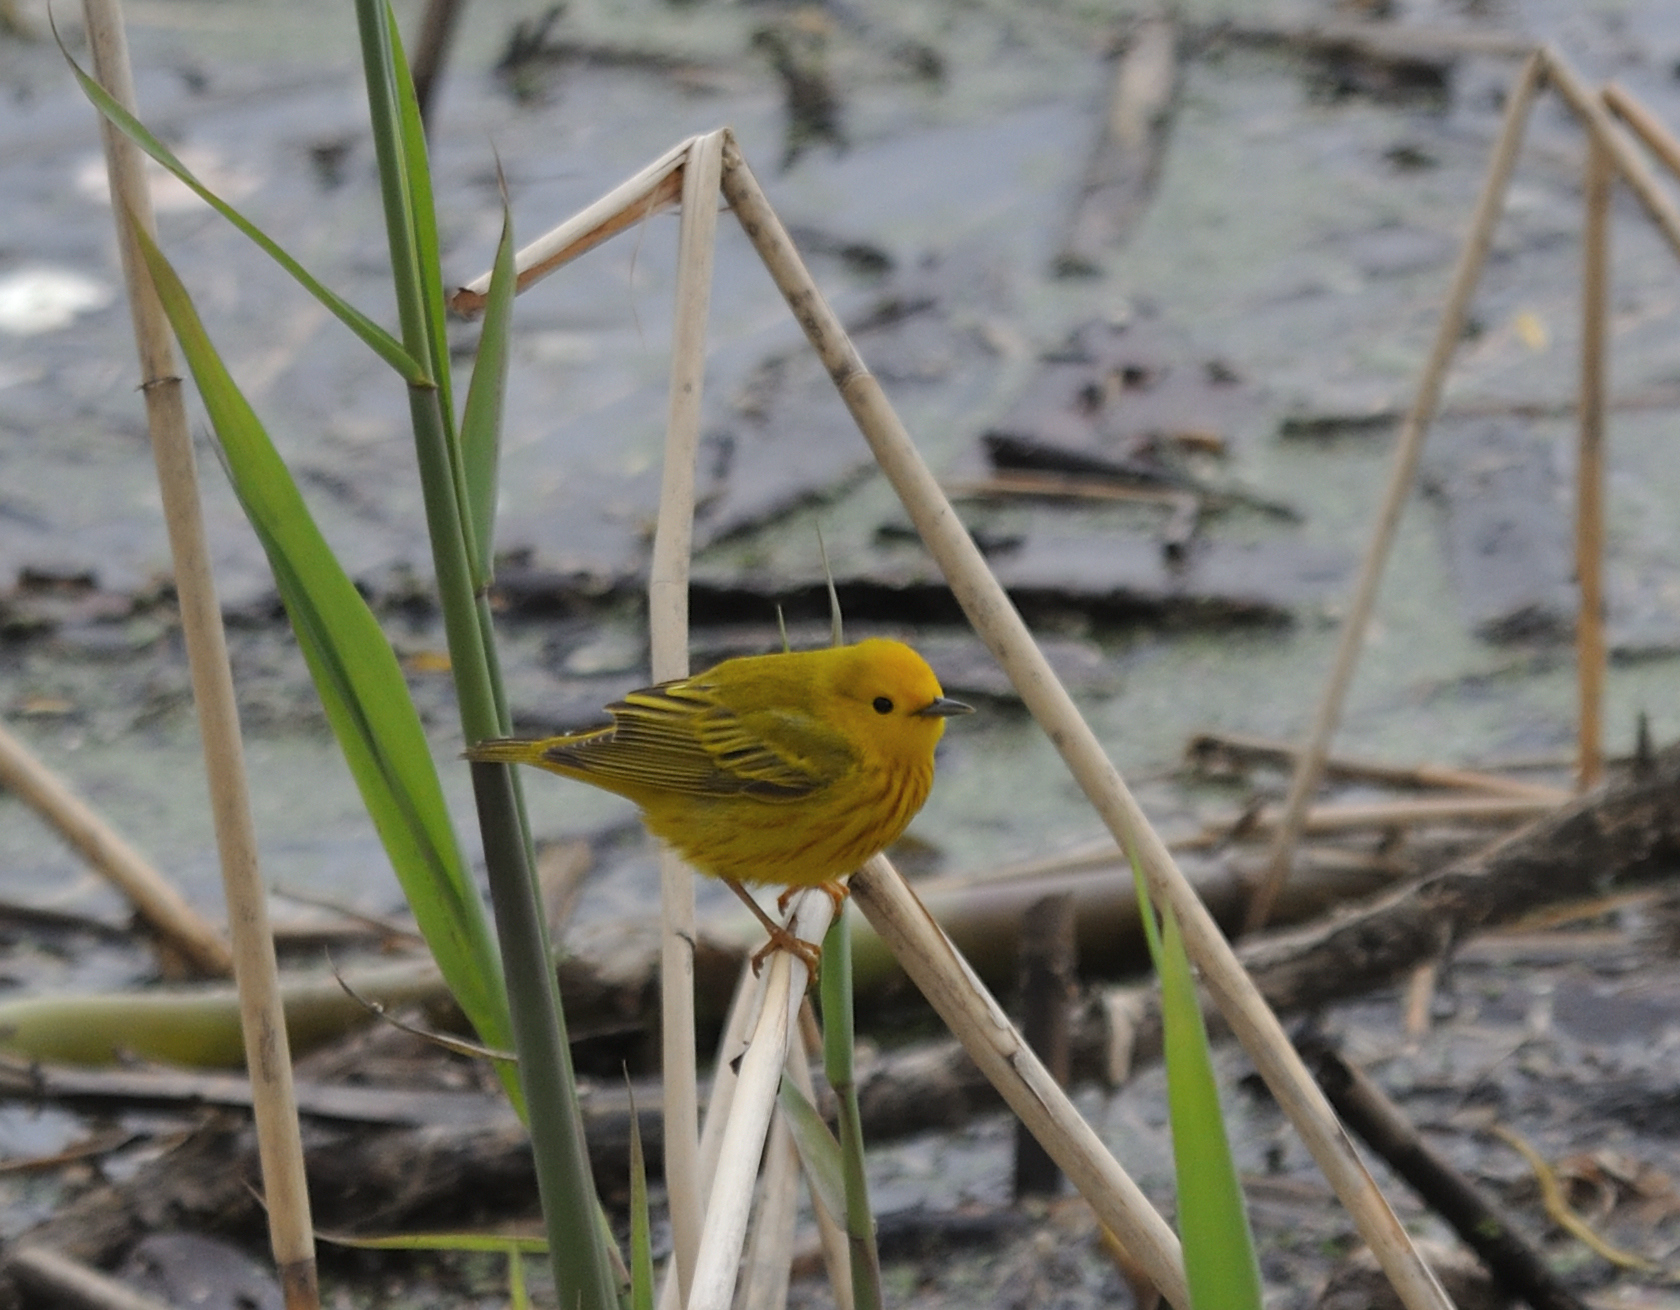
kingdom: Animalia
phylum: Chordata
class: Aves
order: Passeriformes
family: Parulidae
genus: Setophaga
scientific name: Setophaga petechia
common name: Yellow warbler
